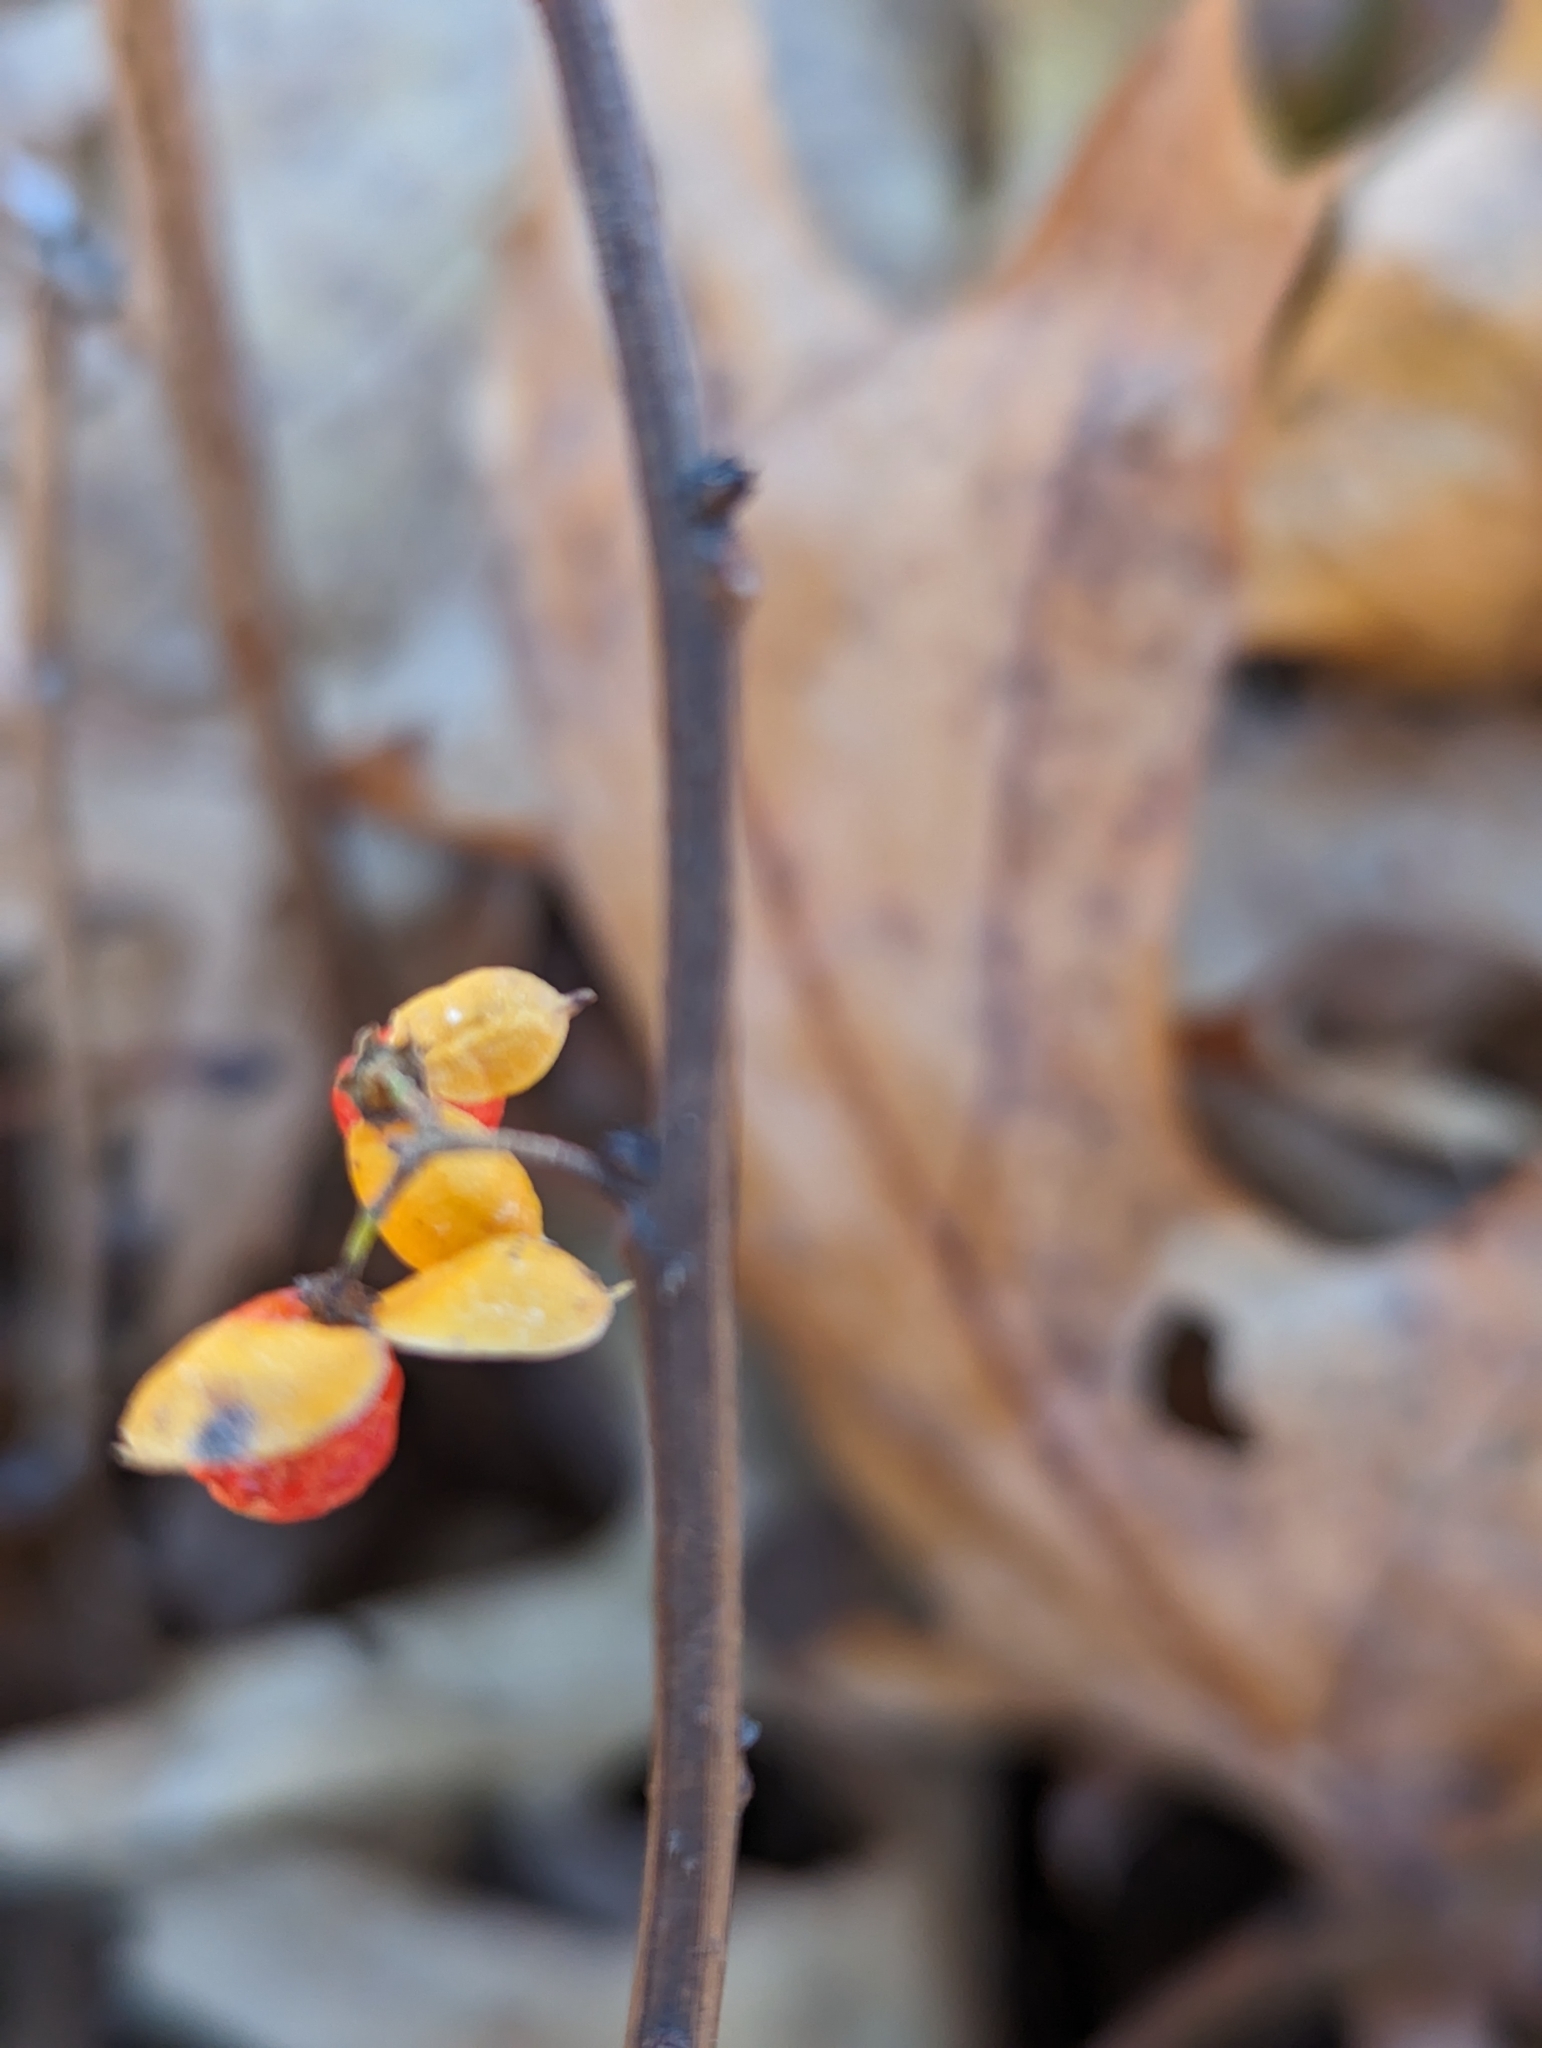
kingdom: Plantae
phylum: Tracheophyta
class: Magnoliopsida
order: Celastrales
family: Celastraceae
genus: Celastrus
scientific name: Celastrus orbiculatus
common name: Oriental bittersweet
